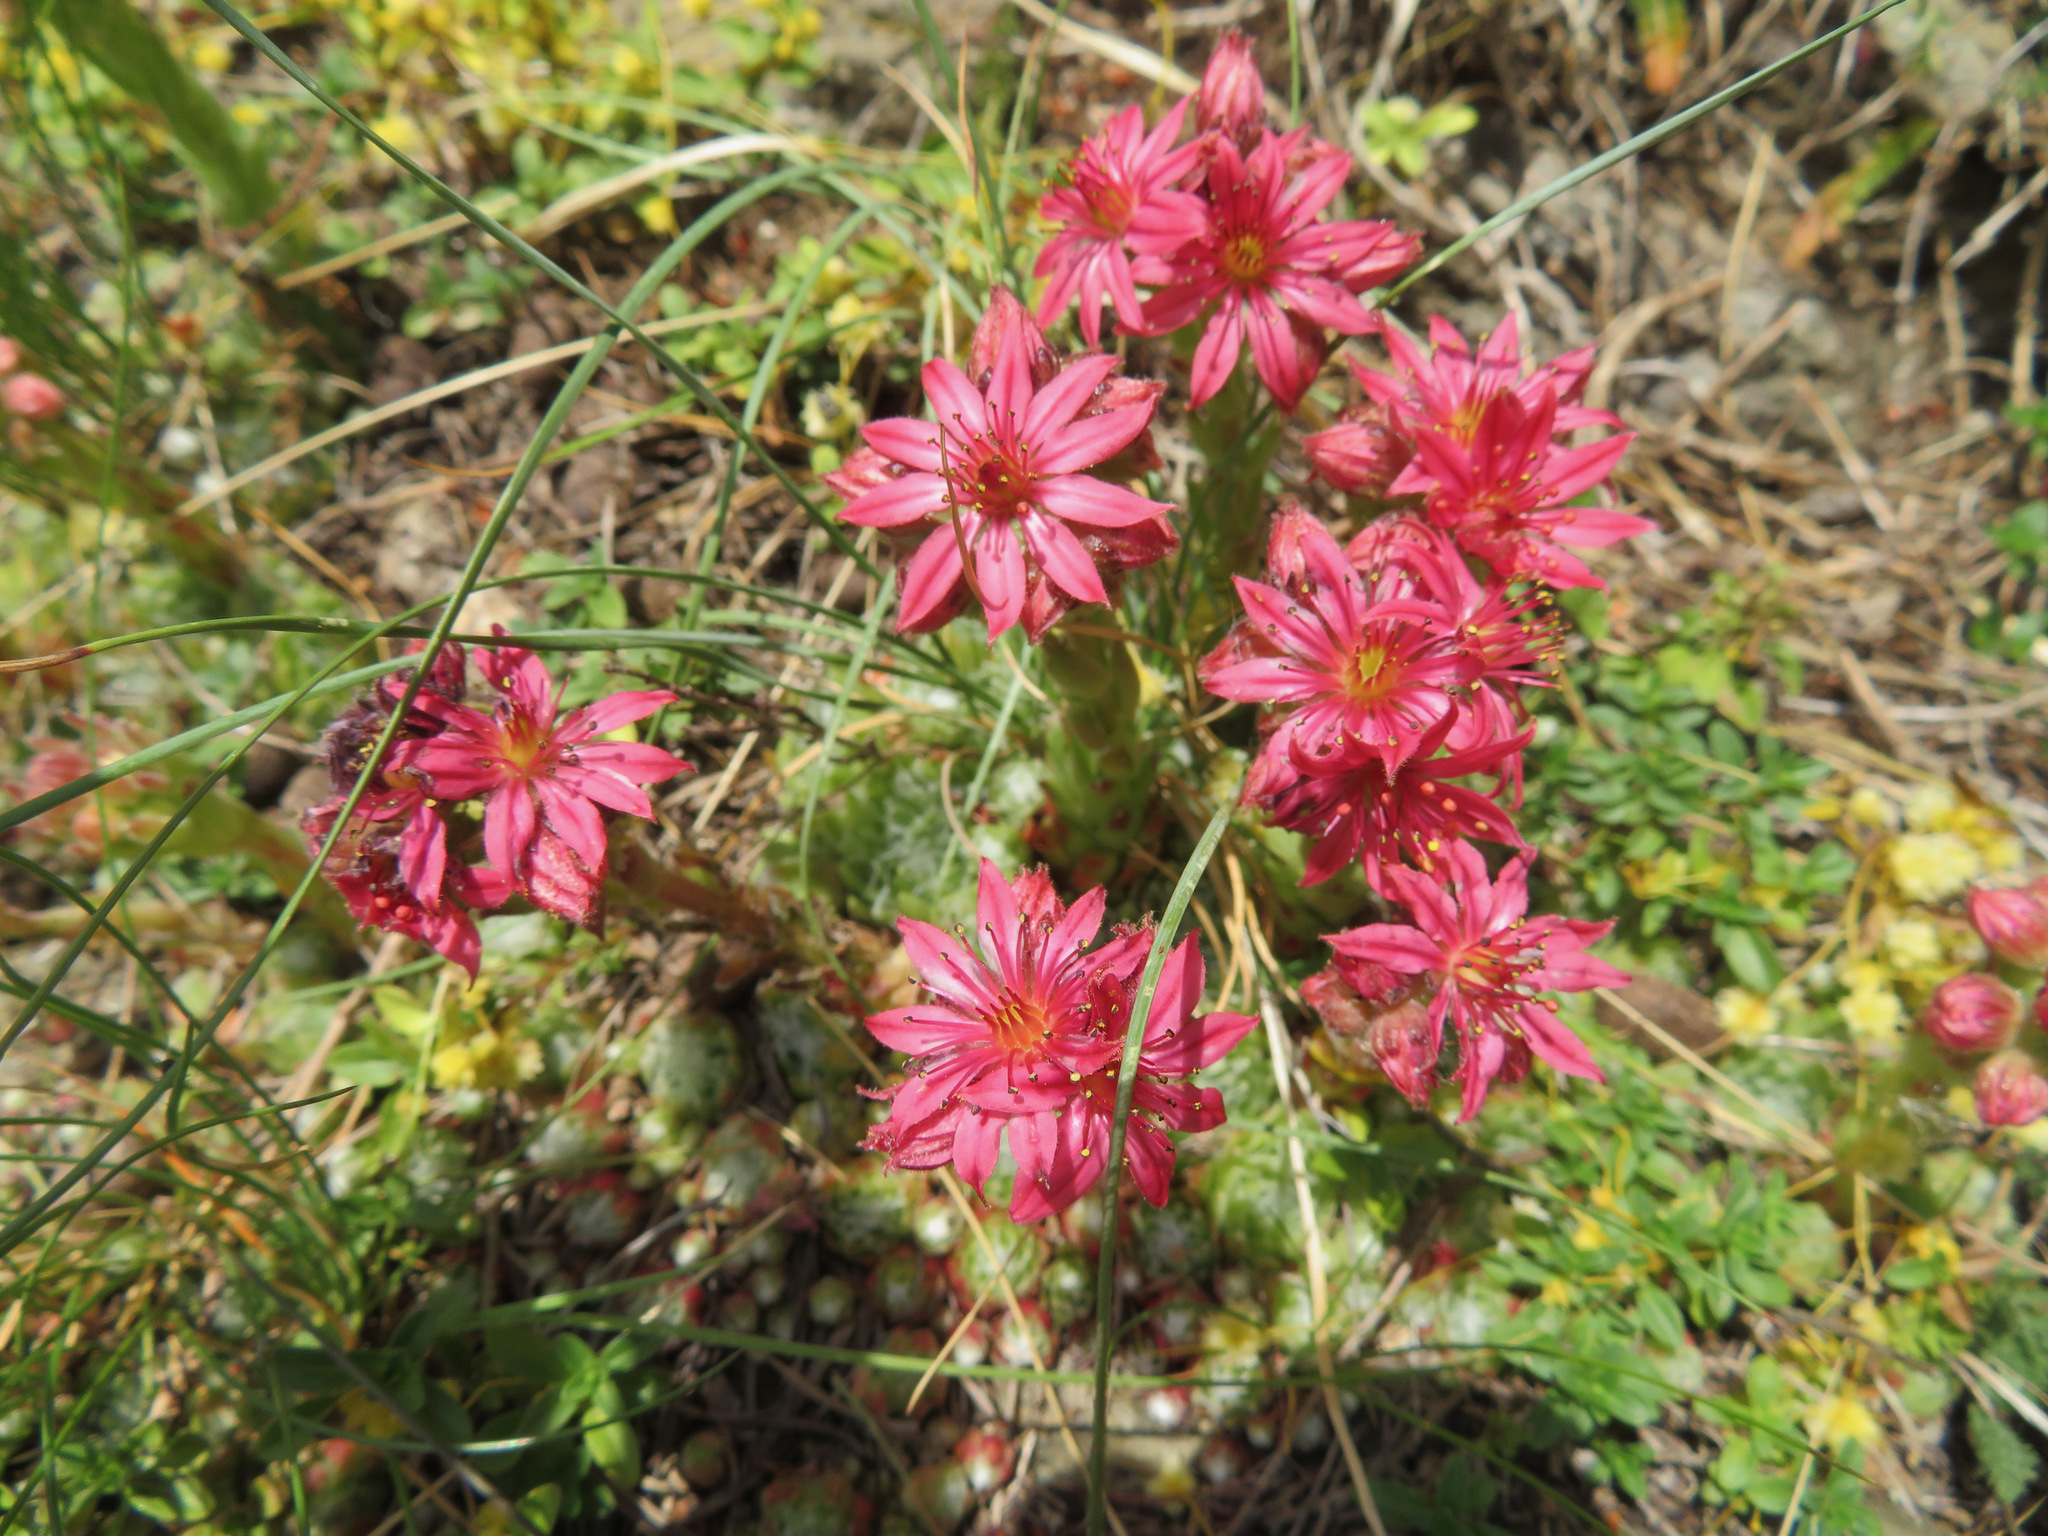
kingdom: Plantae
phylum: Tracheophyta
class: Magnoliopsida
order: Saxifragales
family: Crassulaceae
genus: Sempervivum
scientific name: Sempervivum arachnoideum
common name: Cobweb house-leek
